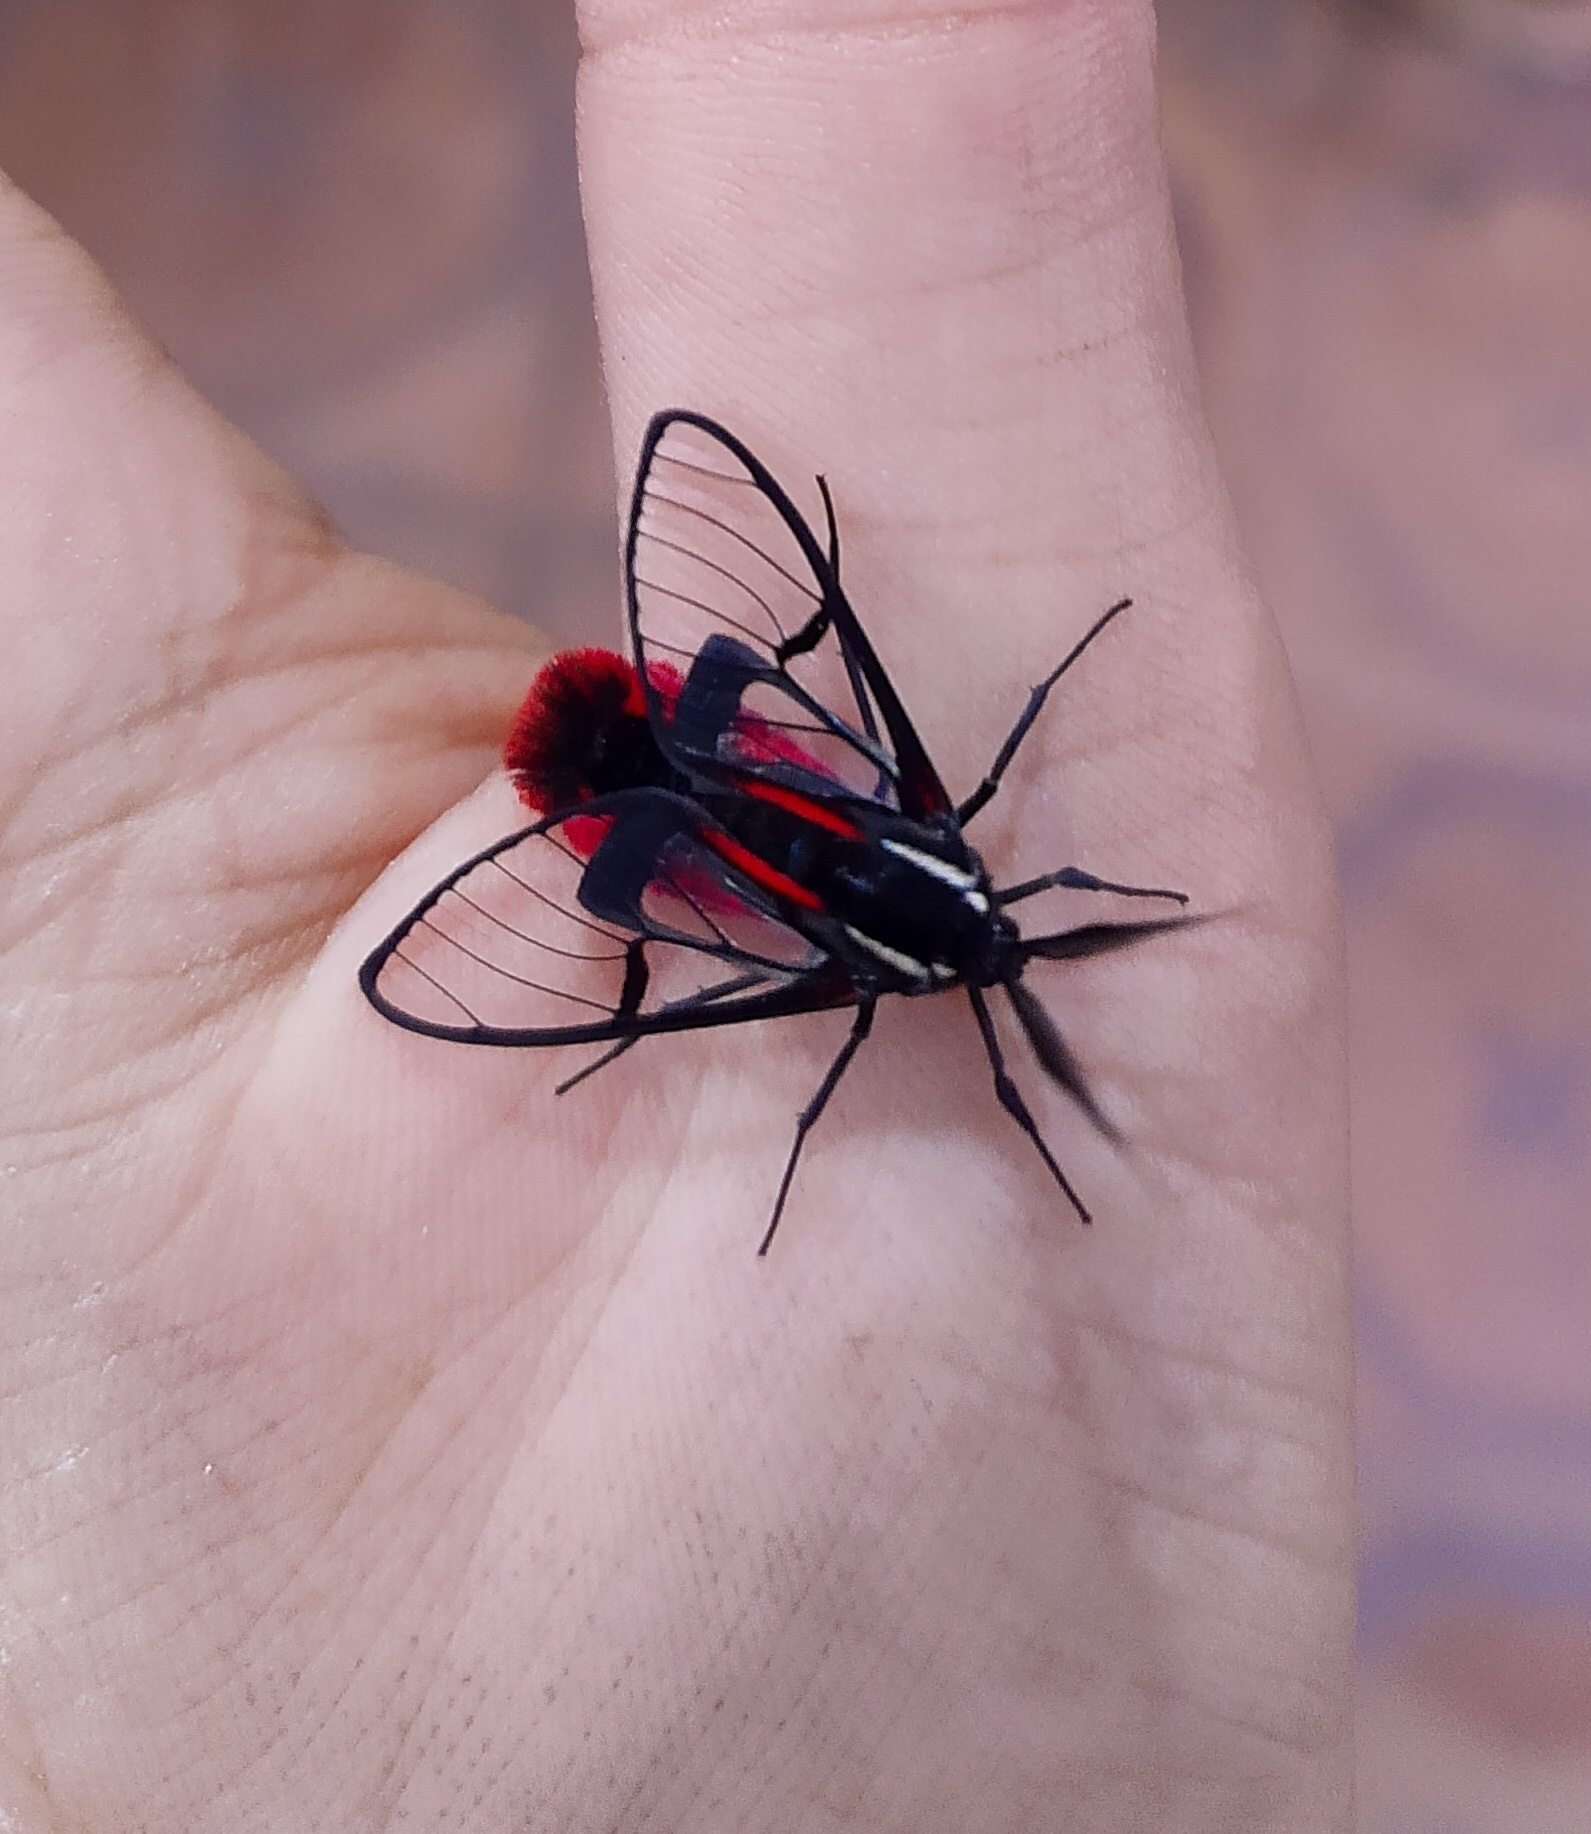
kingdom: Animalia
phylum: Arthropoda
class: Insecta
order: Lepidoptera
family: Erebidae
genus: Dinia
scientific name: Dinia eagrus
